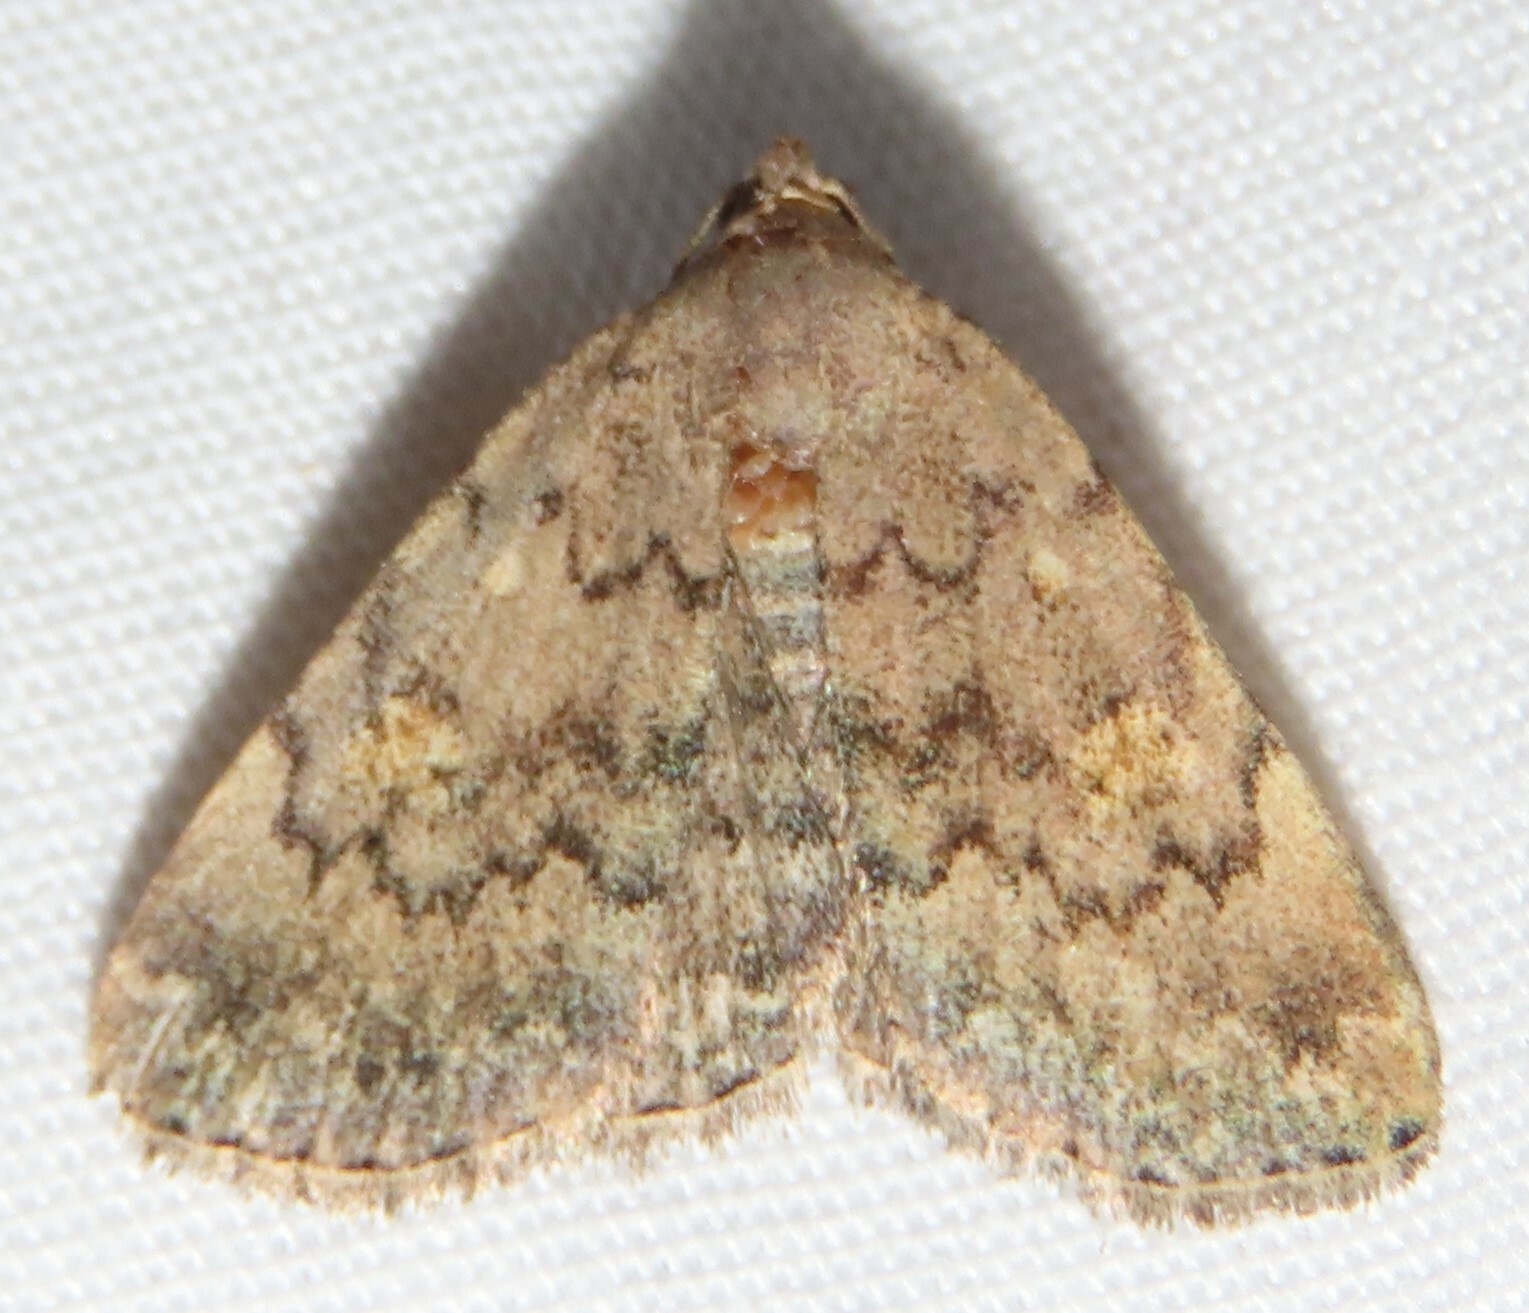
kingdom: Animalia
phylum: Arthropoda
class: Insecta
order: Lepidoptera
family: Erebidae
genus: Idia
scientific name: Idia aemula
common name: Common idia moth
